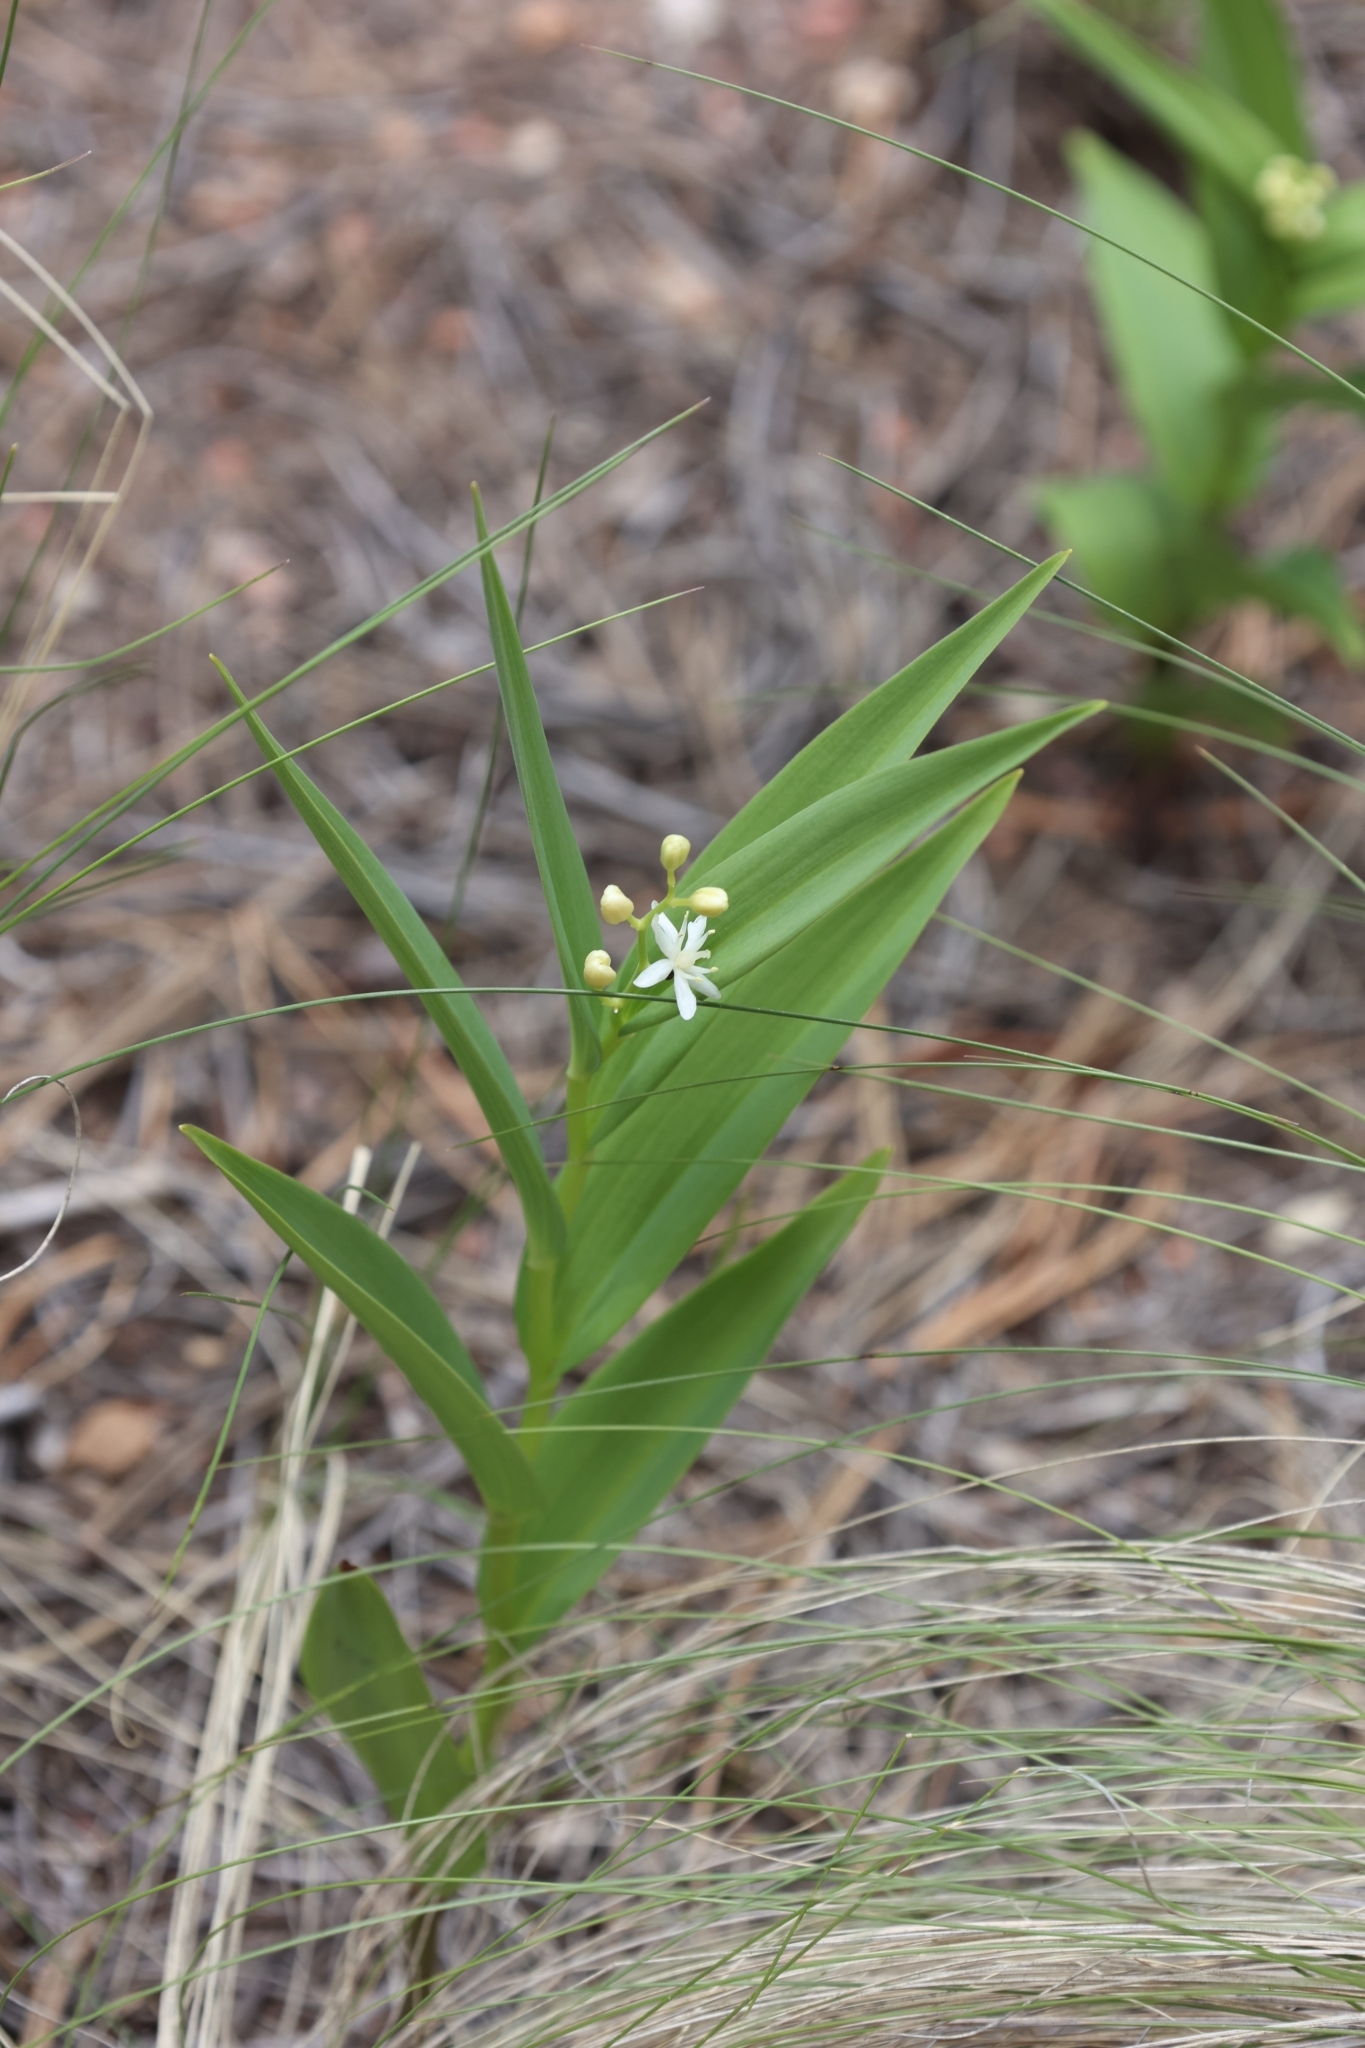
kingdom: Plantae
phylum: Tracheophyta
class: Liliopsida
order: Asparagales
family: Asparagaceae
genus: Maianthemum
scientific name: Maianthemum stellatum
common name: Little false solomon's seal
